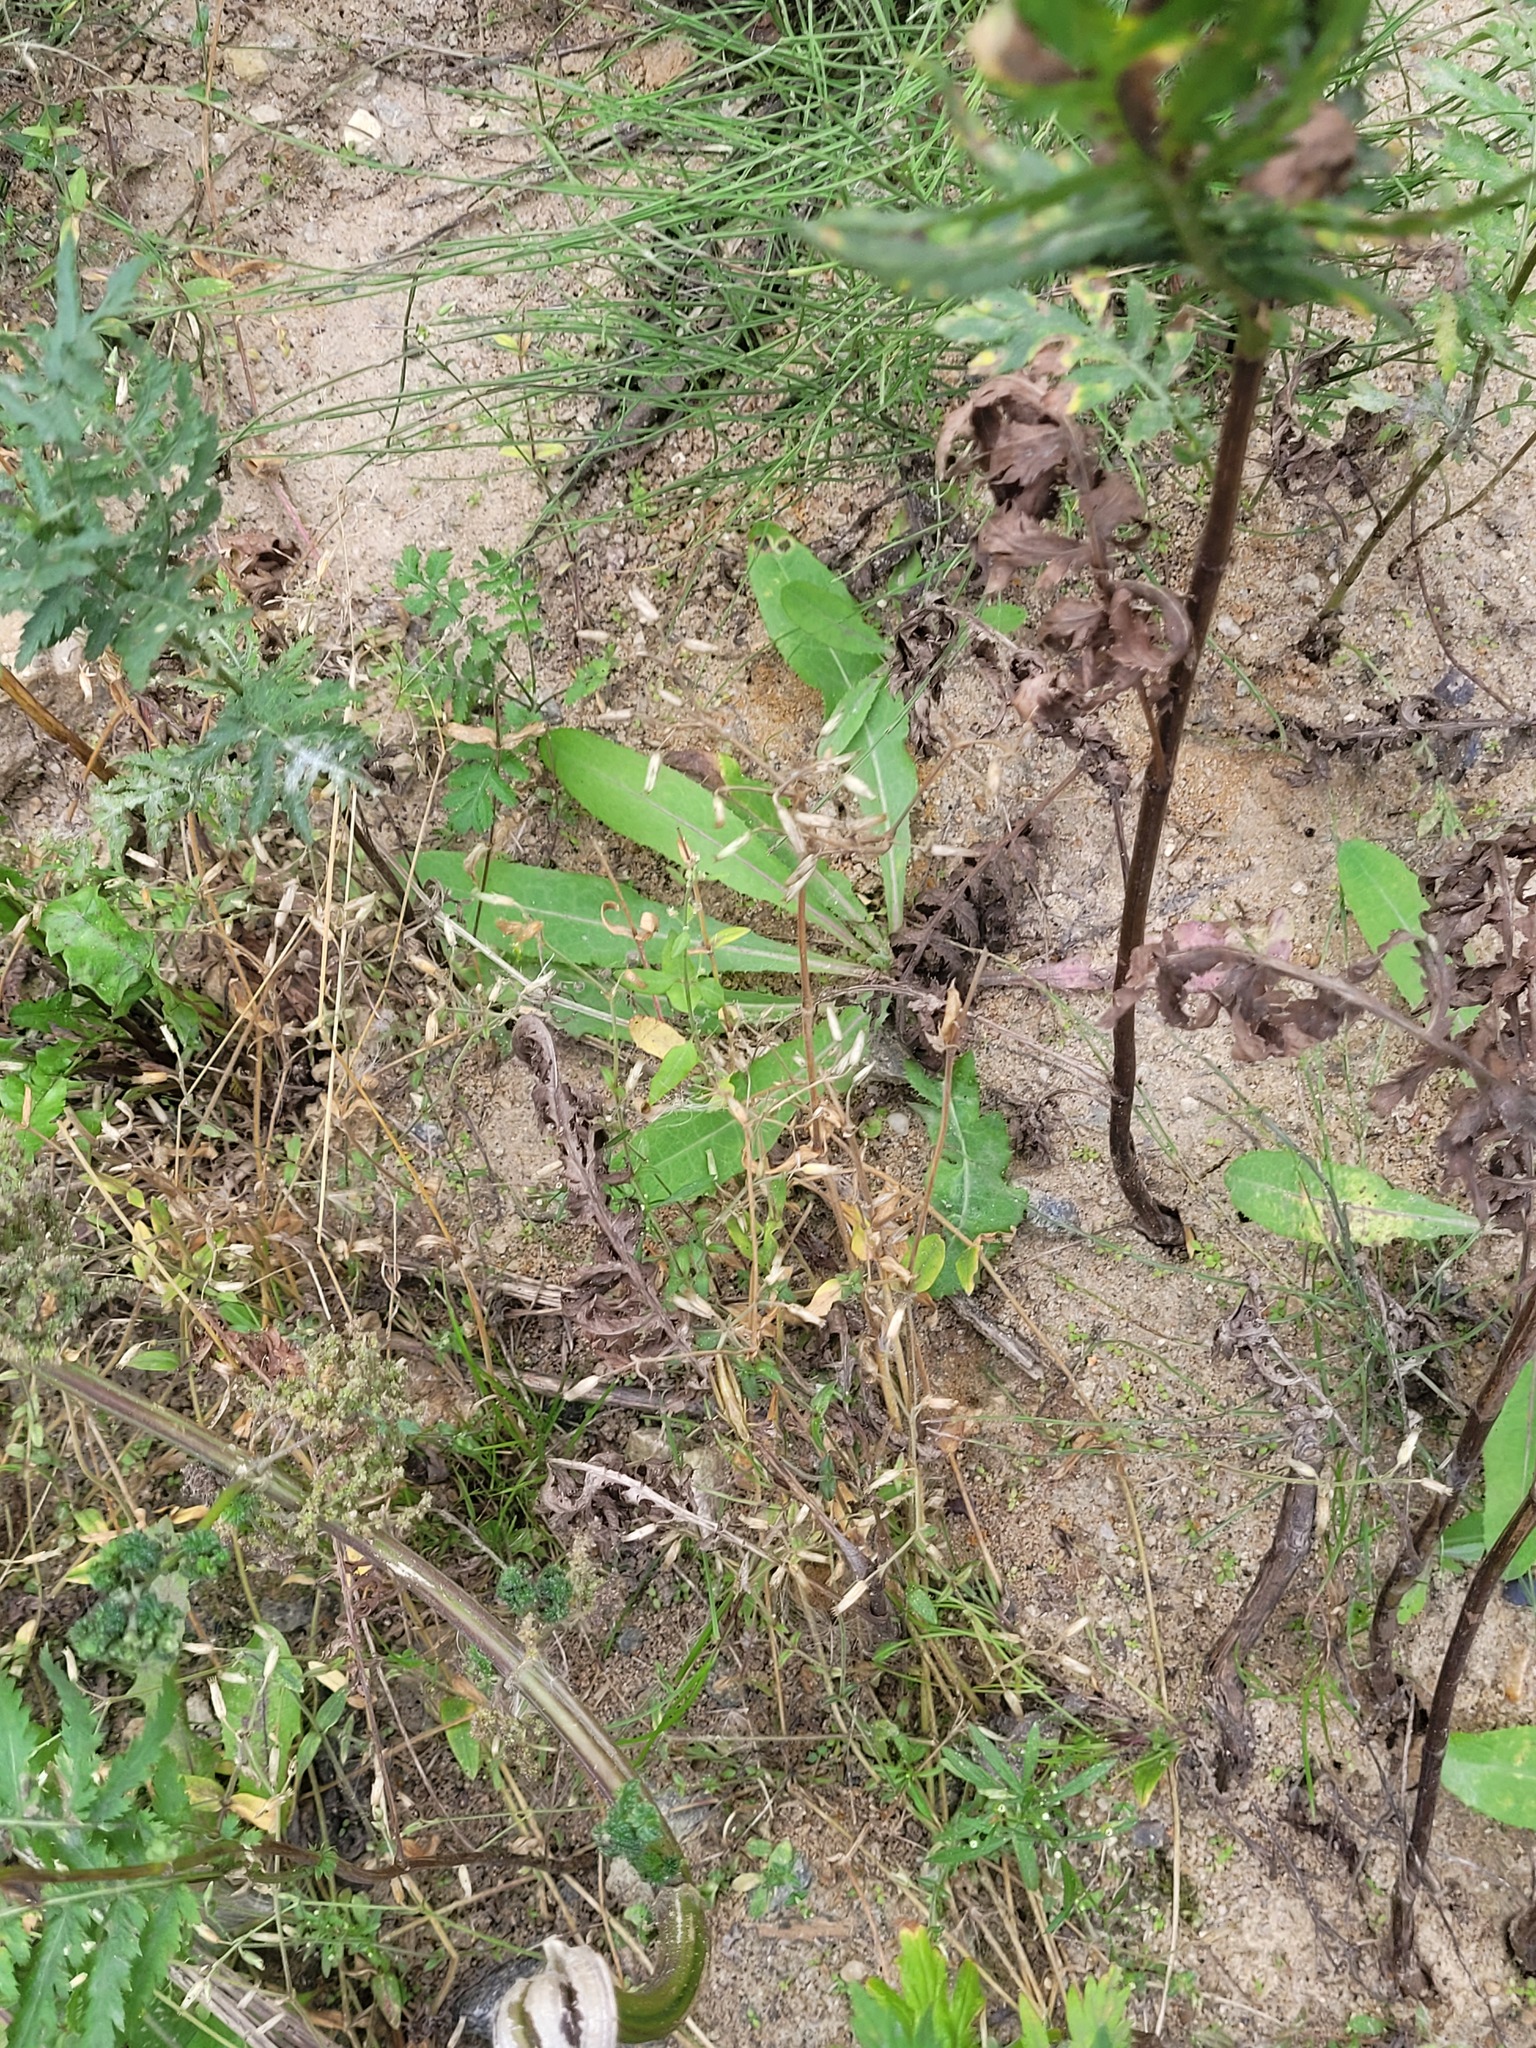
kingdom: Plantae
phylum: Tracheophyta
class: Magnoliopsida
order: Caryophyllales
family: Caryophyllaceae
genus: Cerastium
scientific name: Cerastium holosteoides
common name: Big chickweed
